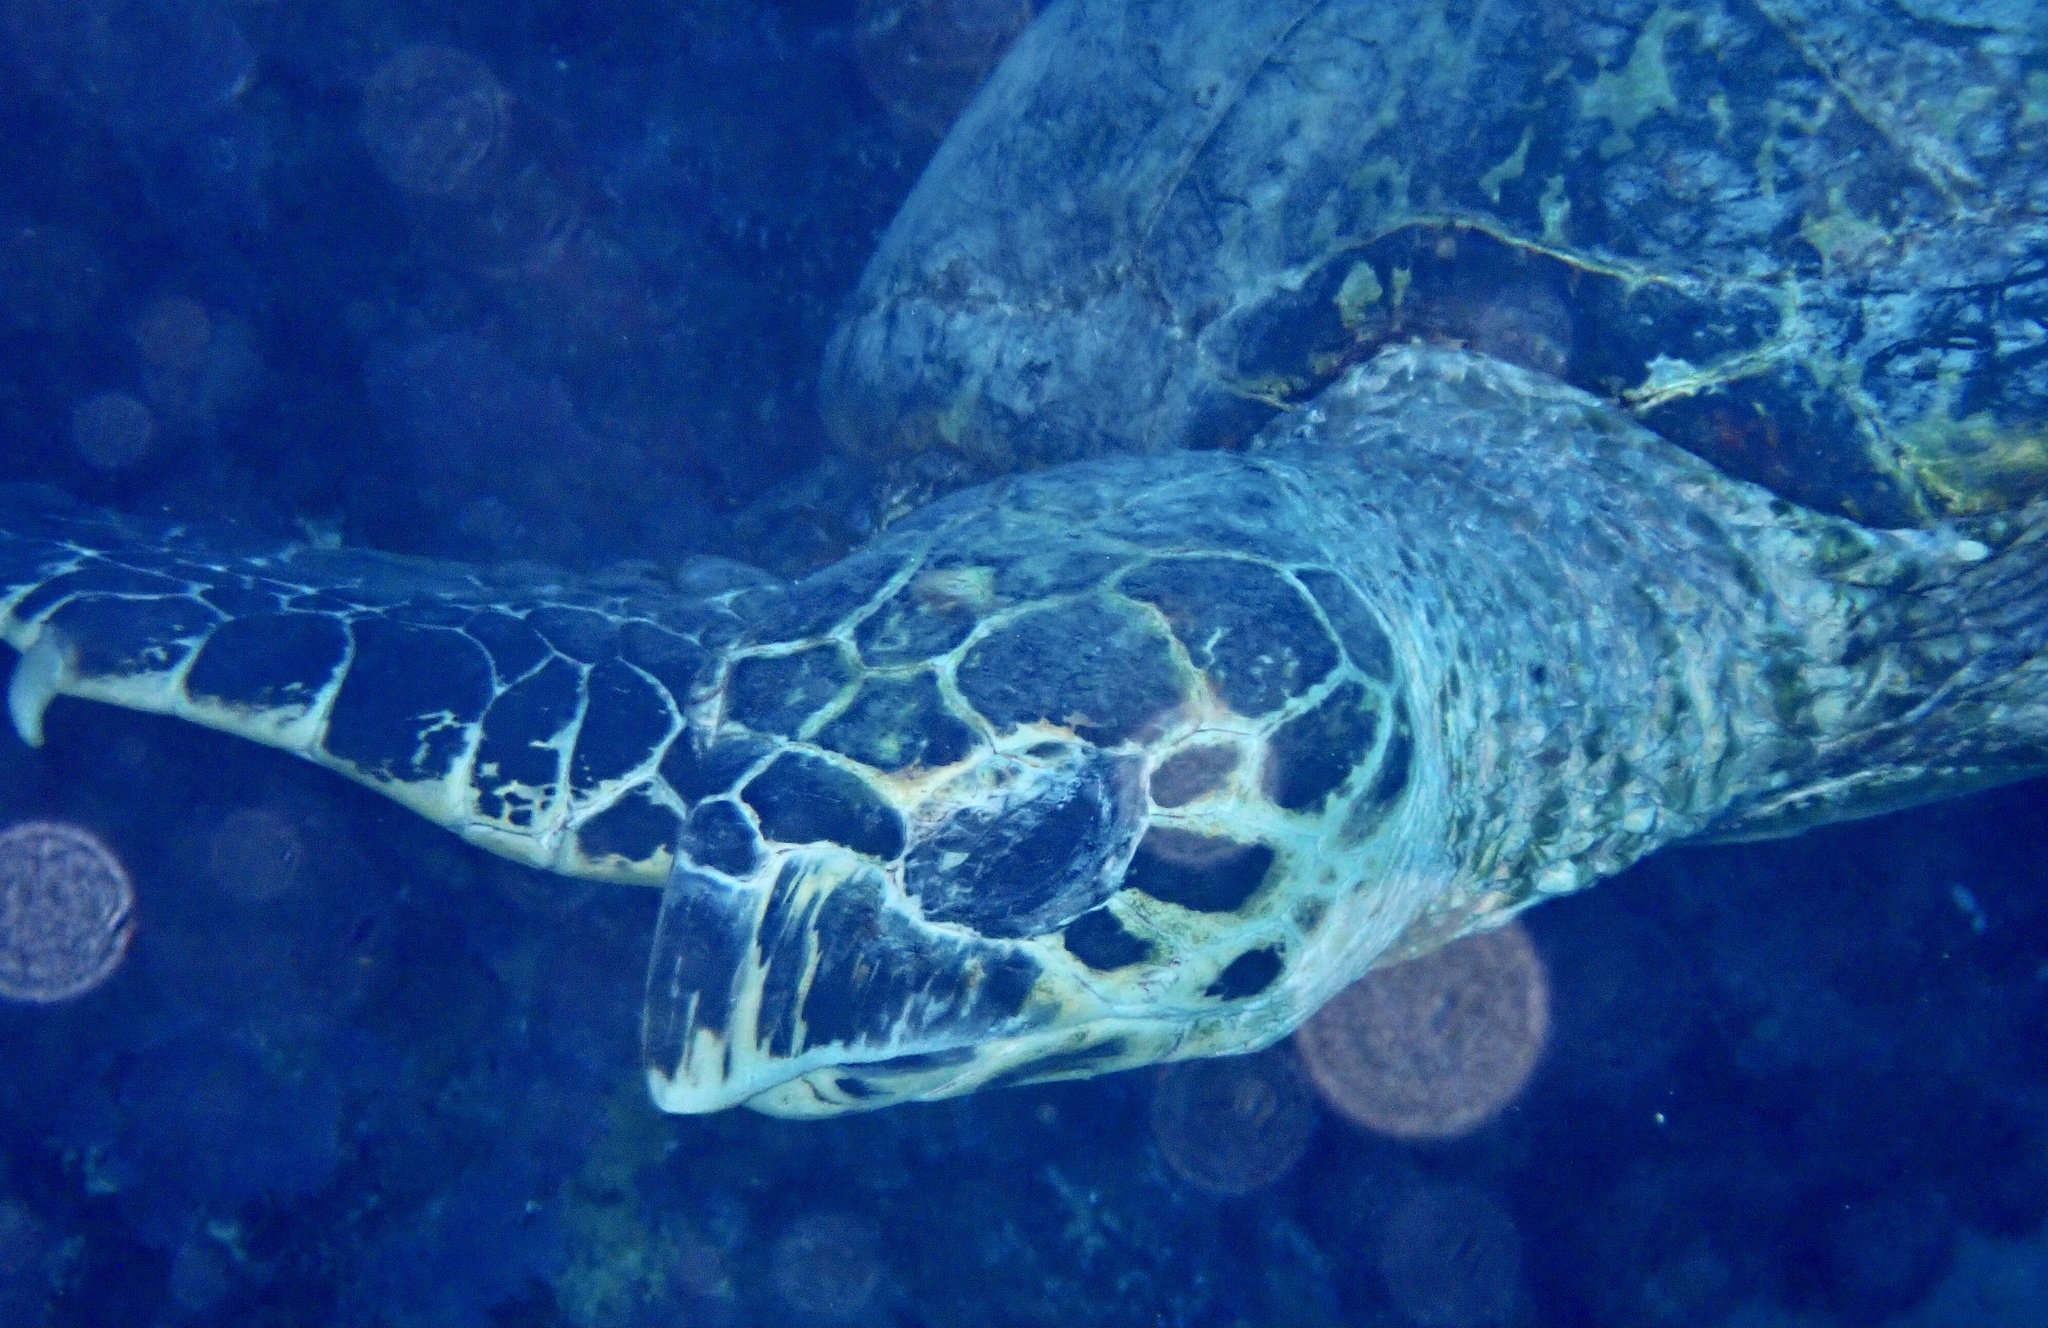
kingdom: Animalia
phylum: Chordata
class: Testudines
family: Cheloniidae
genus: Eretmochelys
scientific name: Eretmochelys imbricata
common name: Hawksbill turtle
